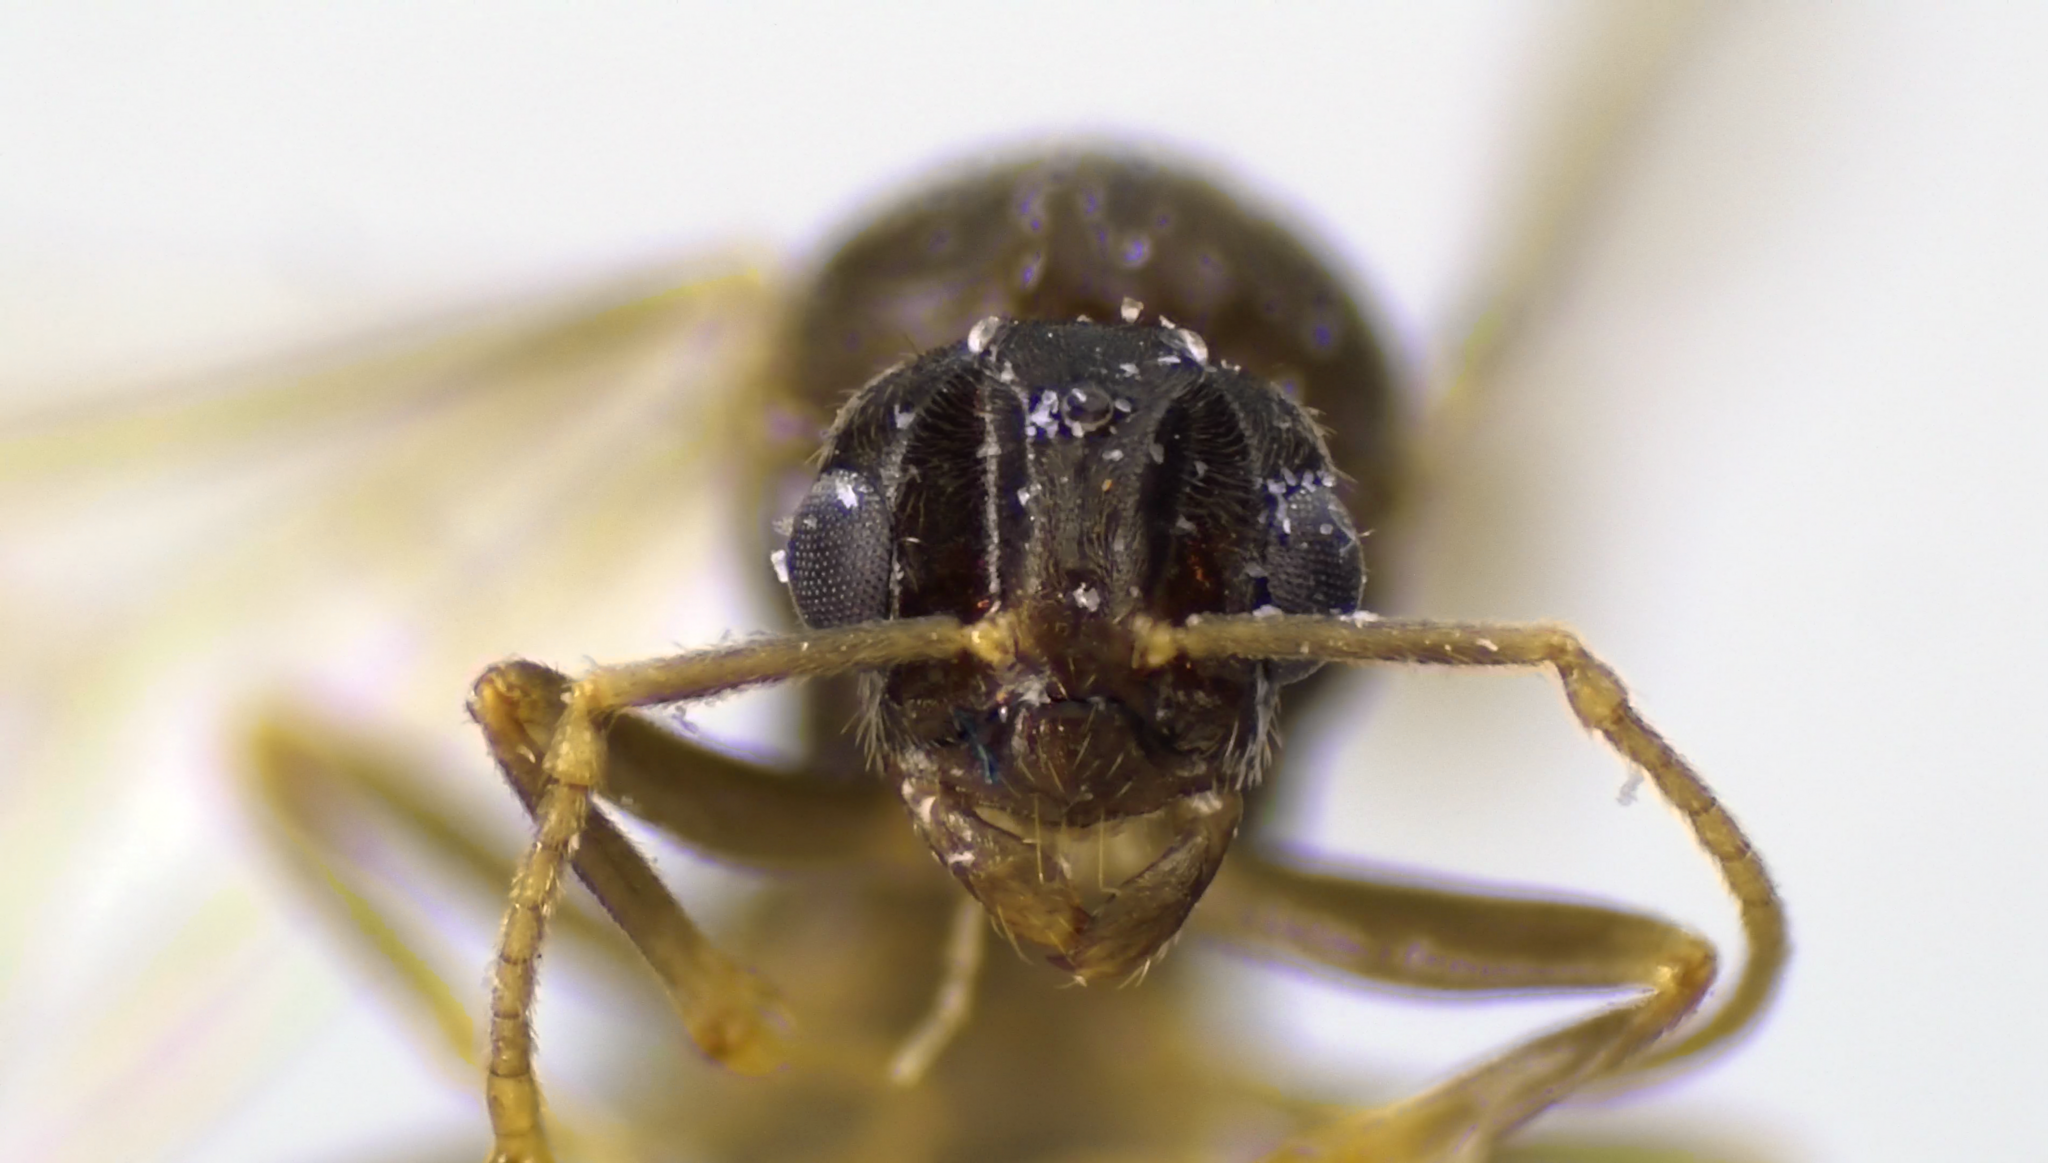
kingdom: Animalia
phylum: Arthropoda
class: Insecta
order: Hymenoptera
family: Formicidae
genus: Lasius
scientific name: Lasius
